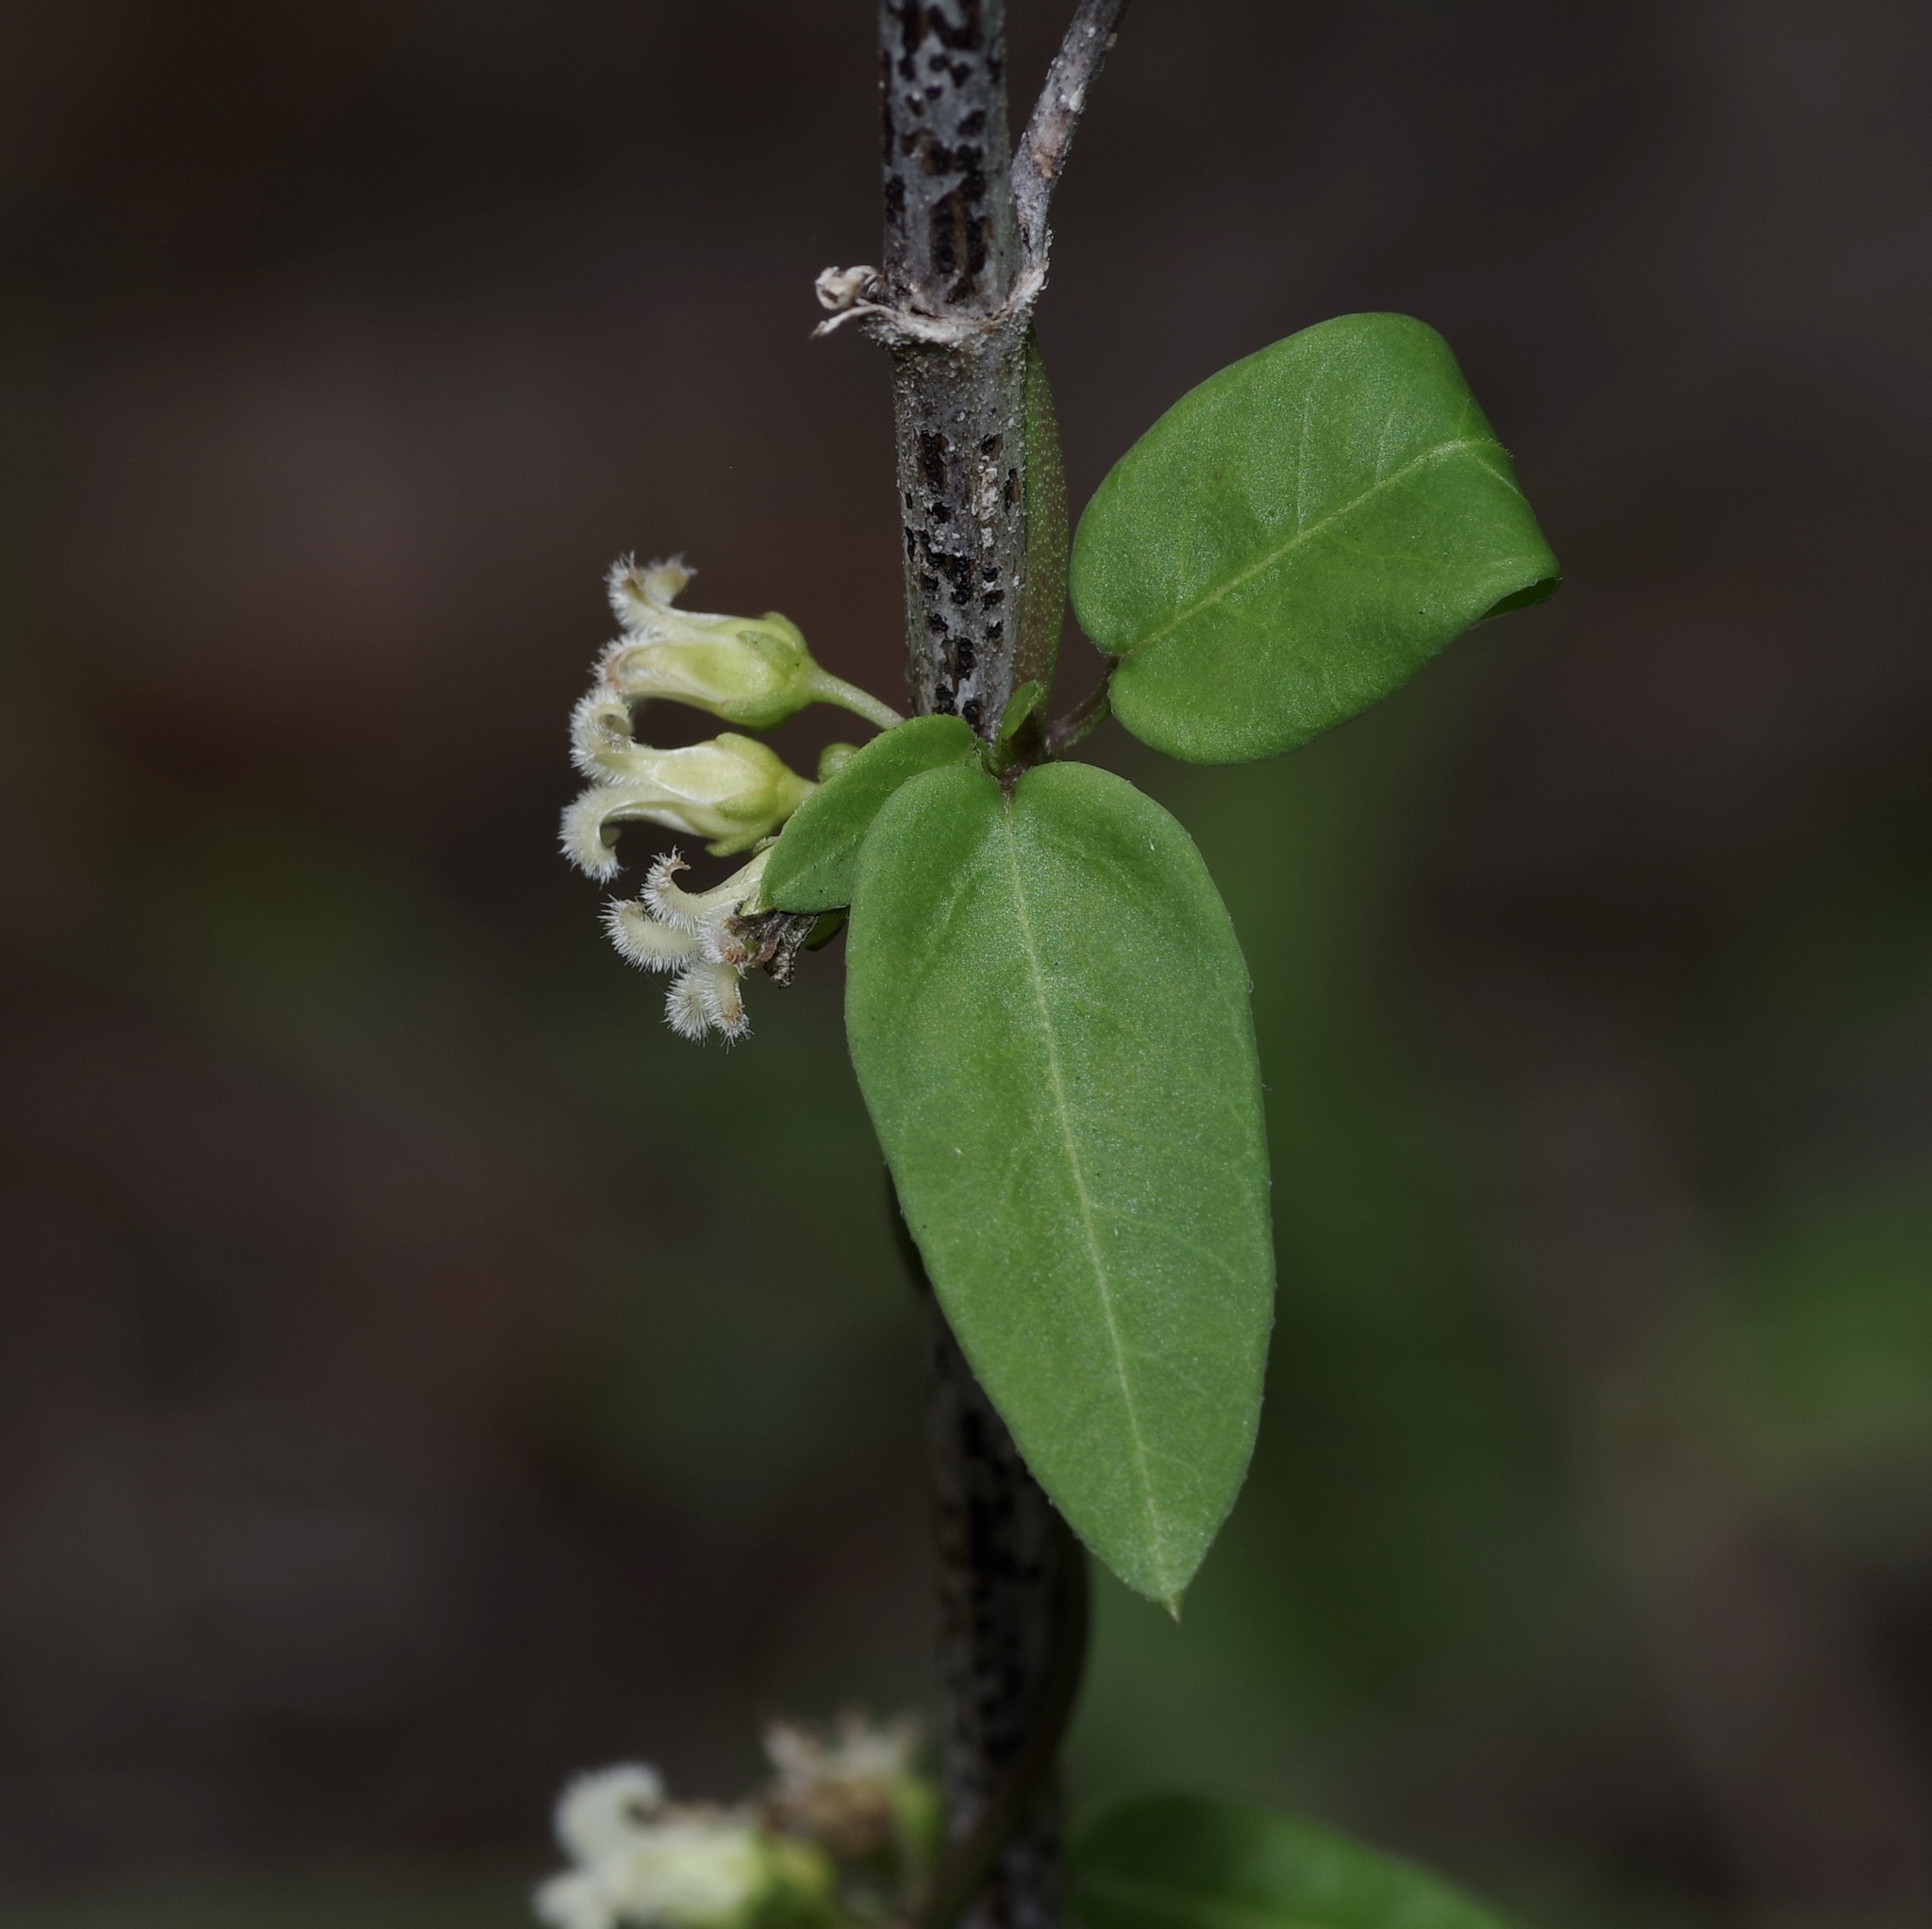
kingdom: Plantae
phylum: Tracheophyta
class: Magnoliopsida
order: Gentianales
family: Apocynaceae
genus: Metastelma
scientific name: Metastelma barbigerum
